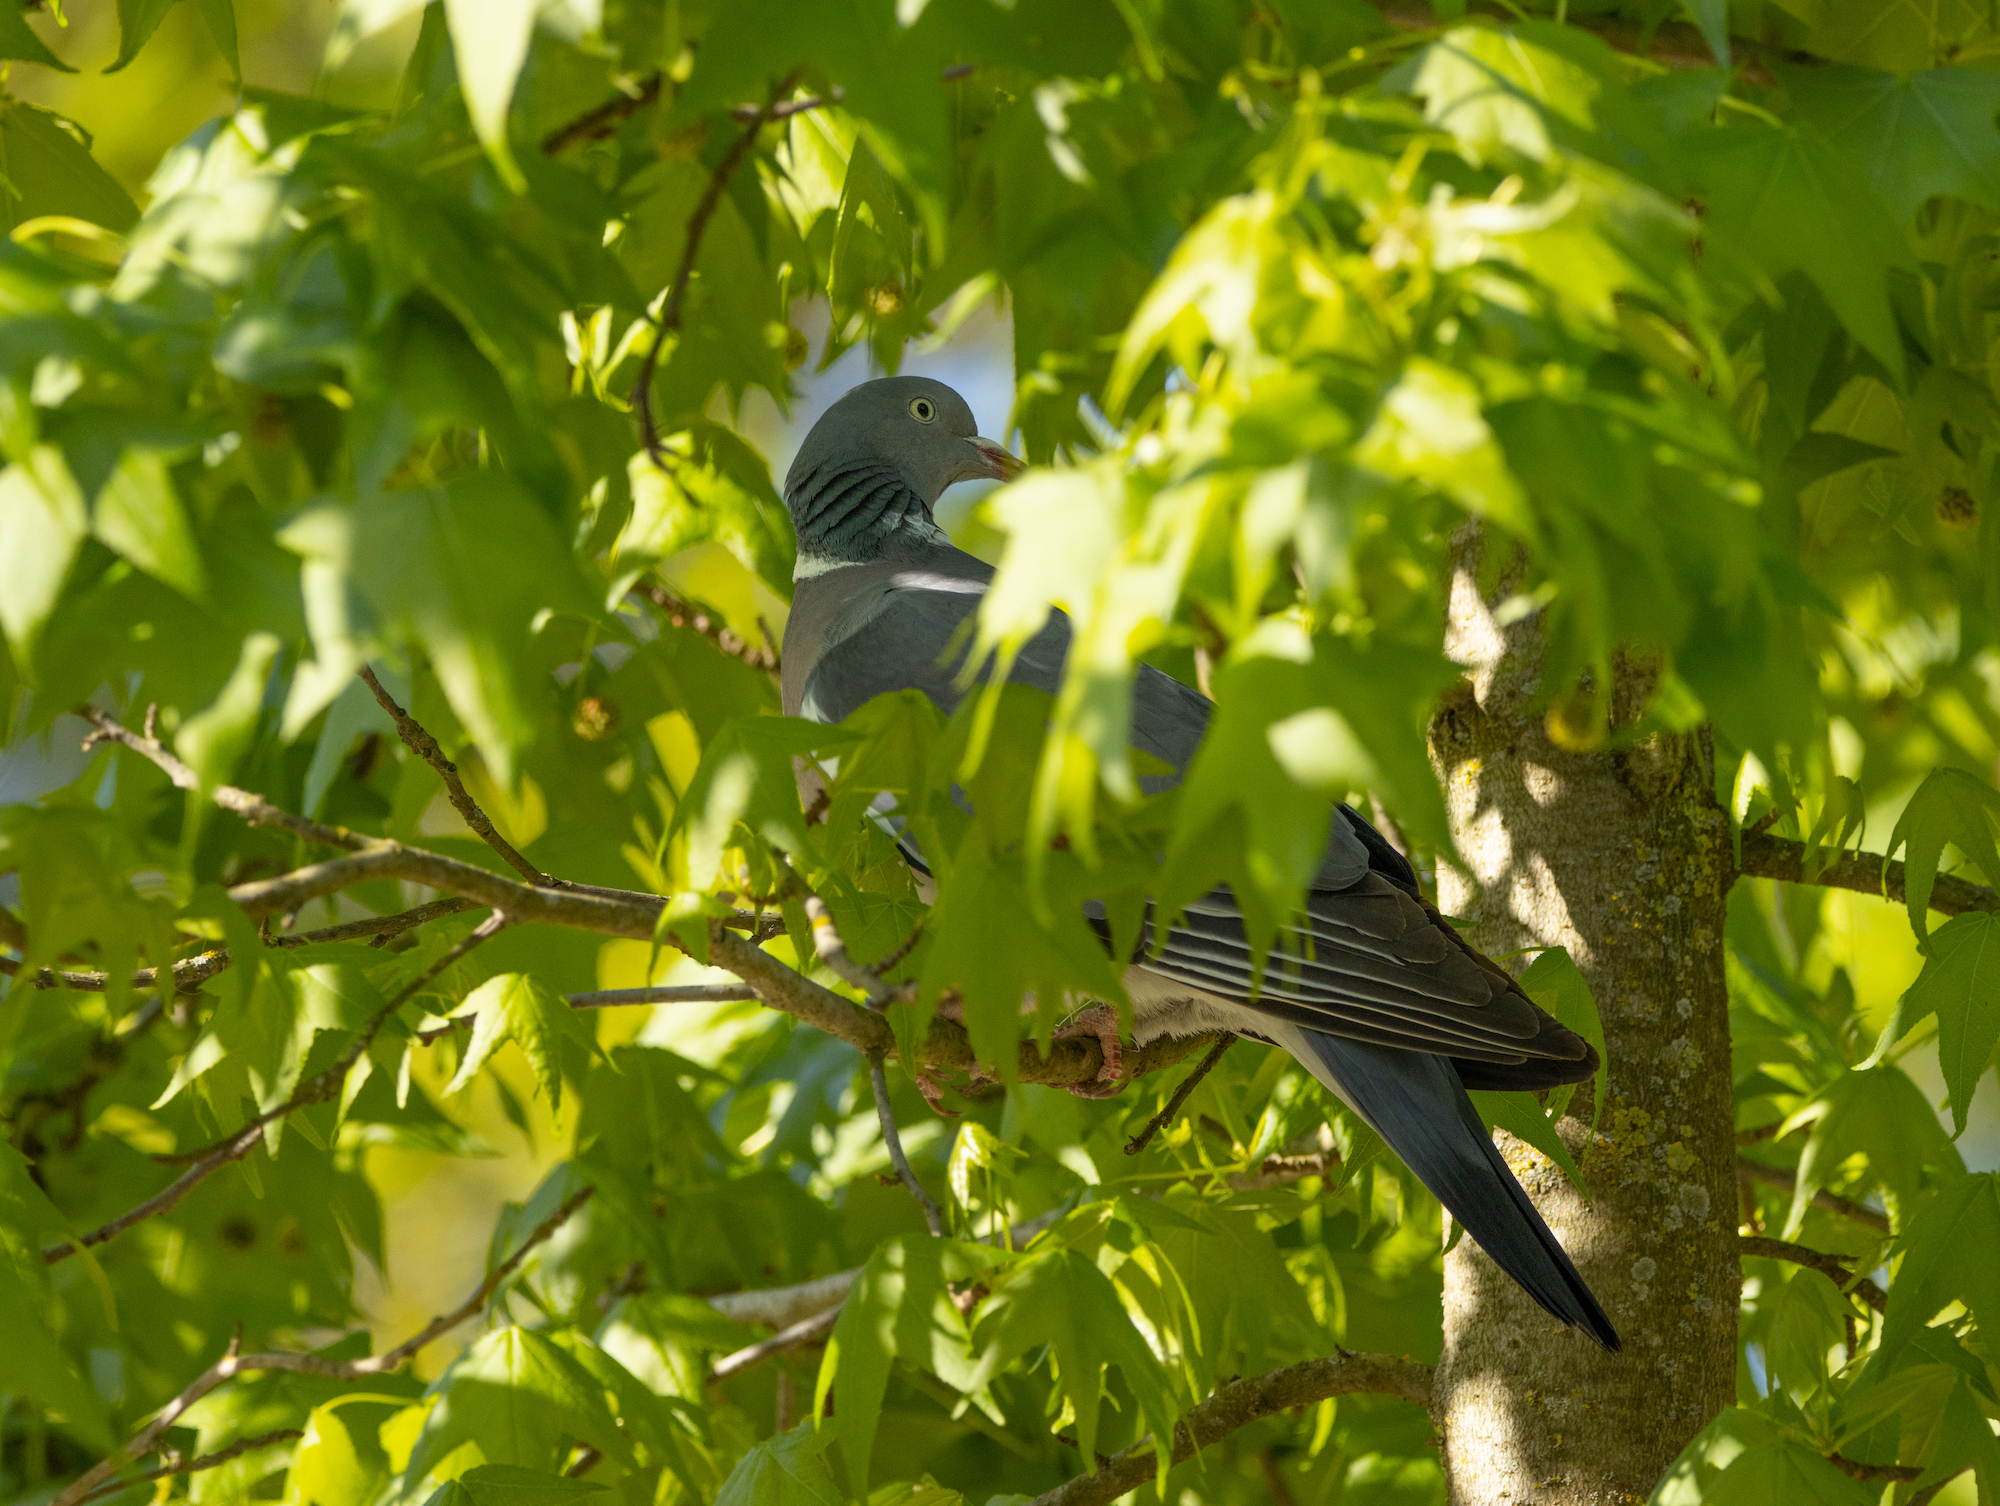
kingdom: Animalia
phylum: Chordata
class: Aves
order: Columbiformes
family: Columbidae
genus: Columba
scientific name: Columba palumbus
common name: Common wood pigeon
